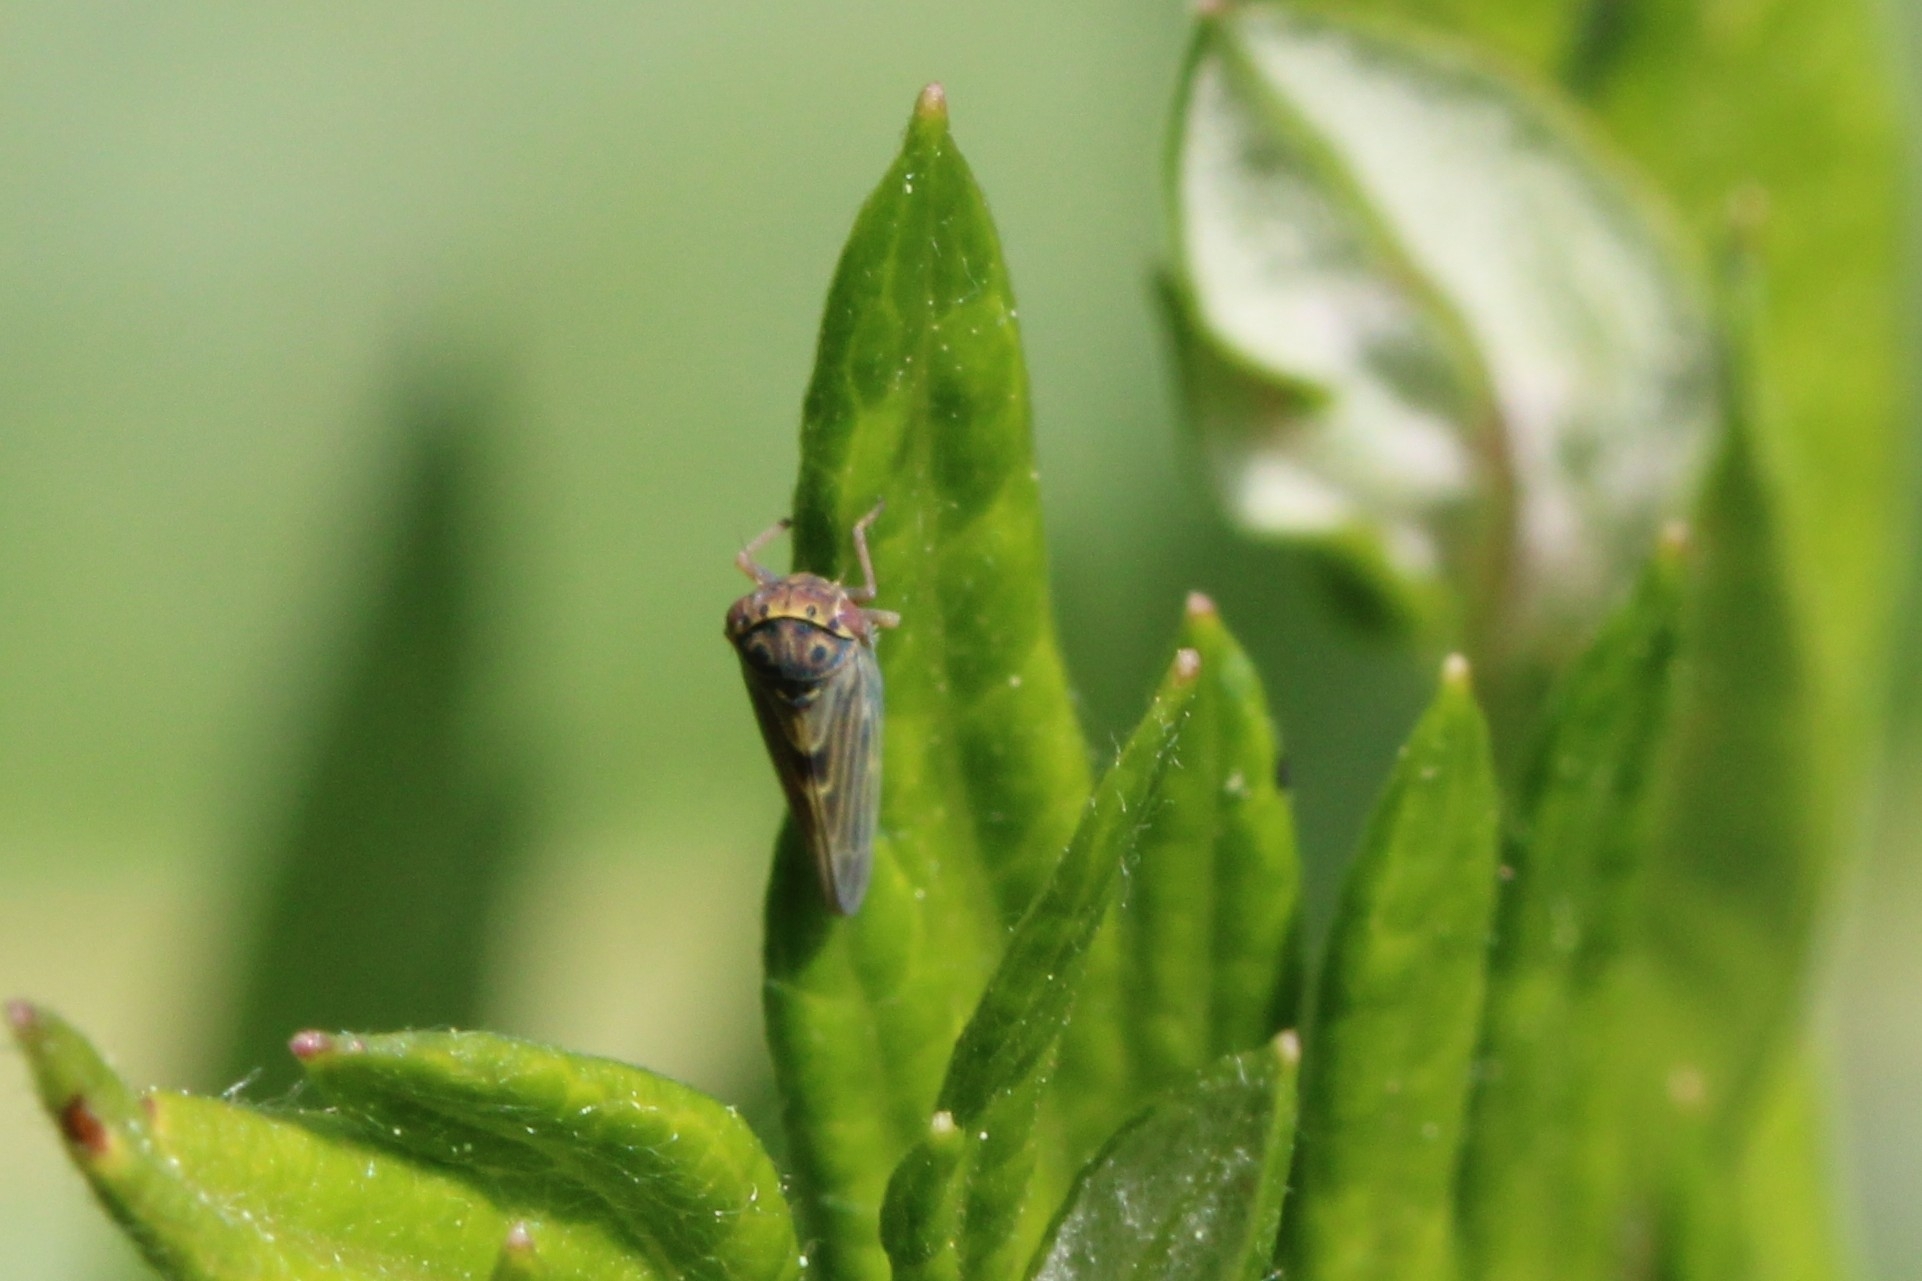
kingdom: Animalia
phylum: Arthropoda
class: Insecta
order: Hemiptera
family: Cicadellidae
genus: Agalliopsis
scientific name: Agalliopsis novella
